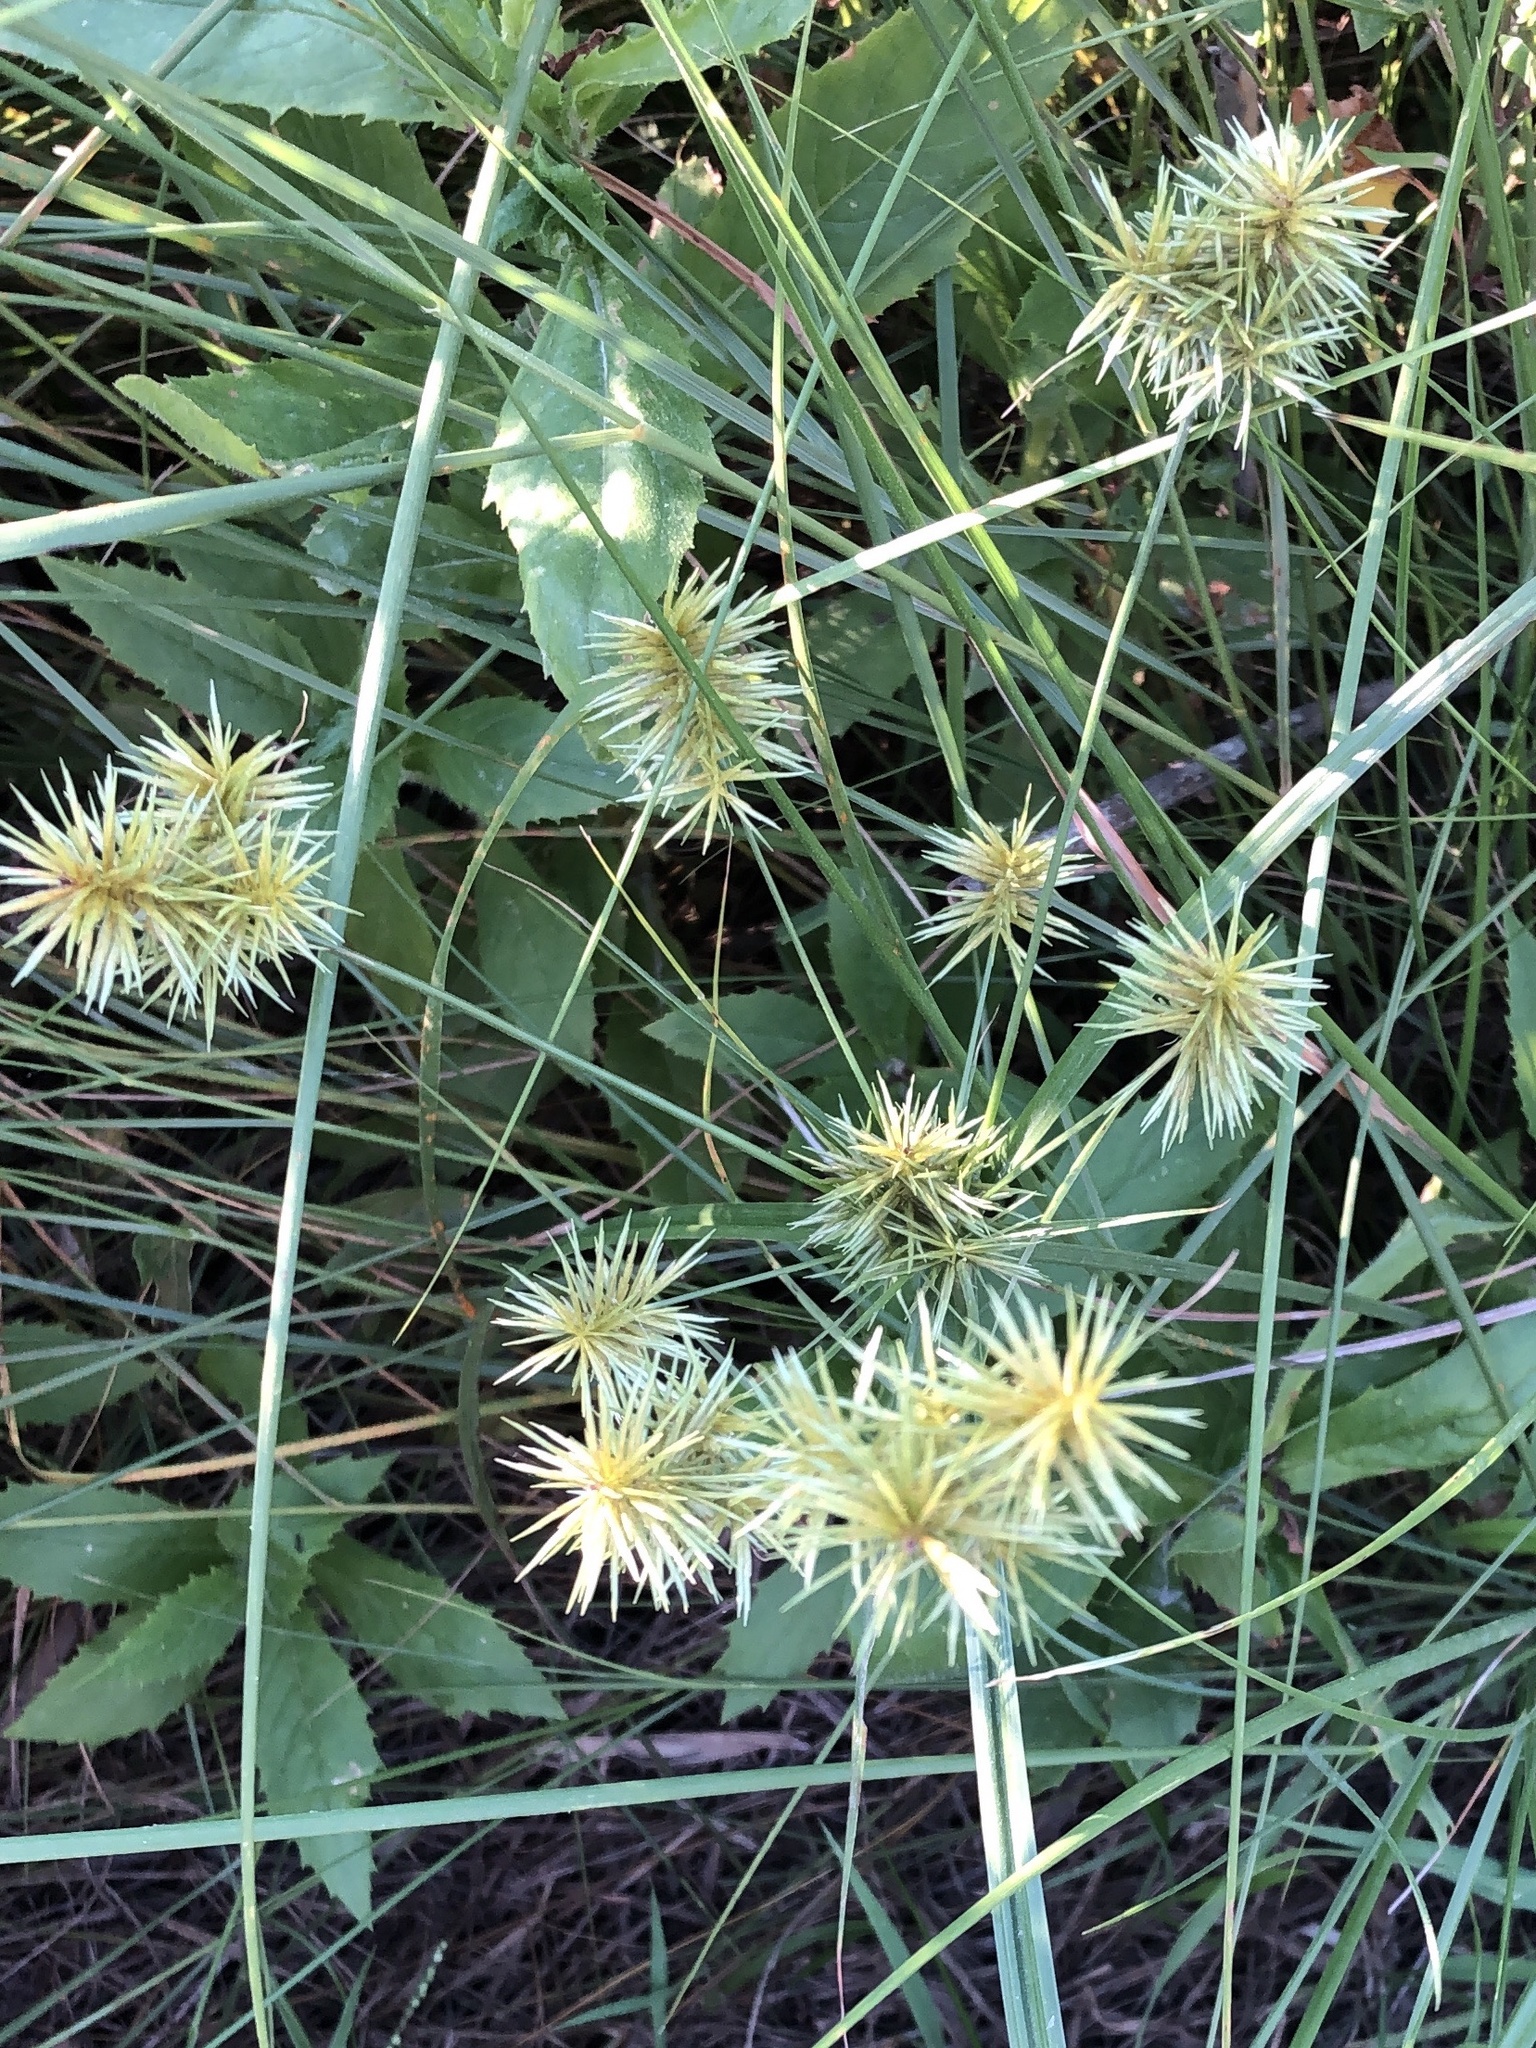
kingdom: Plantae
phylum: Tracheophyta
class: Liliopsida
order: Poales
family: Cyperaceae
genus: Cyperus
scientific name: Cyperus odoratus
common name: Fragrant flatsedge
